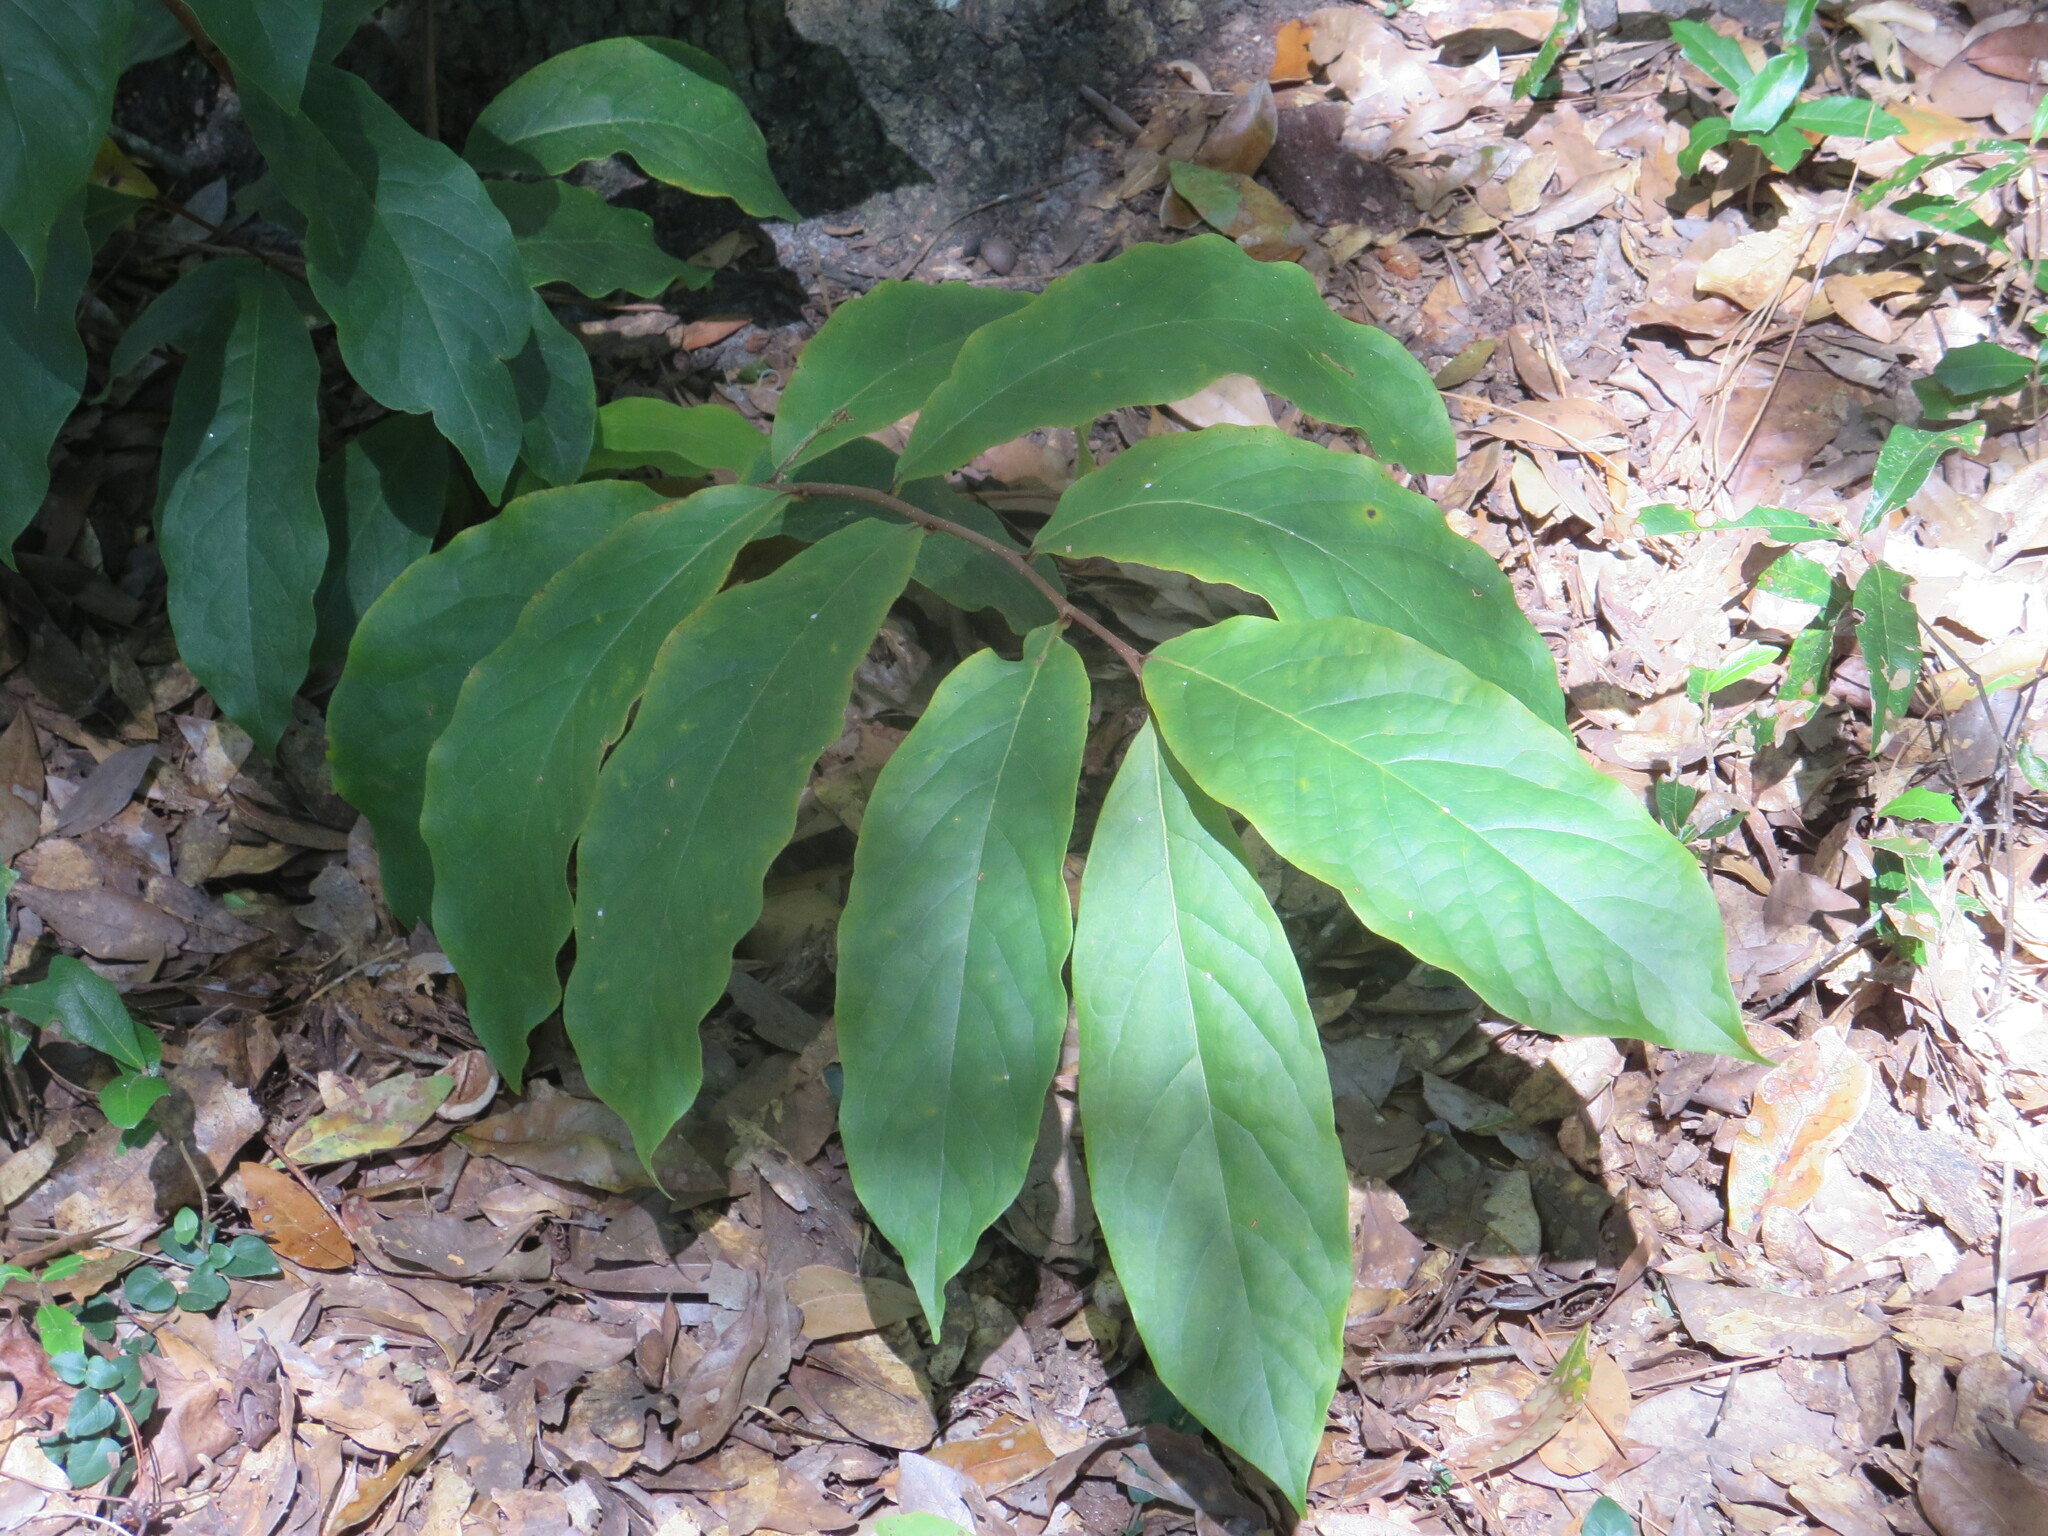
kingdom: Plantae
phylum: Tracheophyta
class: Magnoliopsida
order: Magnoliales
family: Annonaceae
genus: Asimina
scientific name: Asimina parviflora
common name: Dwarf pawpaw
